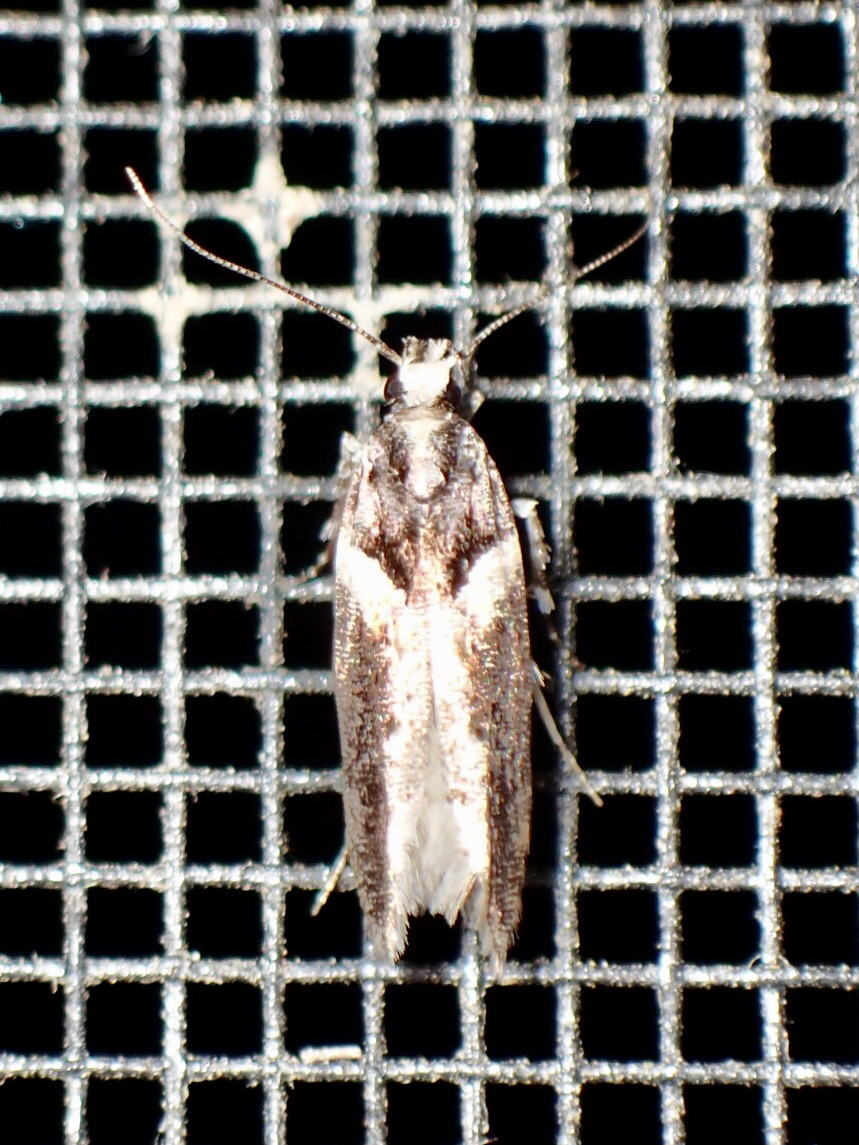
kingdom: Animalia
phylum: Arthropoda
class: Insecta
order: Lepidoptera
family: Gelechiidae
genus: Telphusa
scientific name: Telphusa longifasciella
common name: Y-backed telphusa
